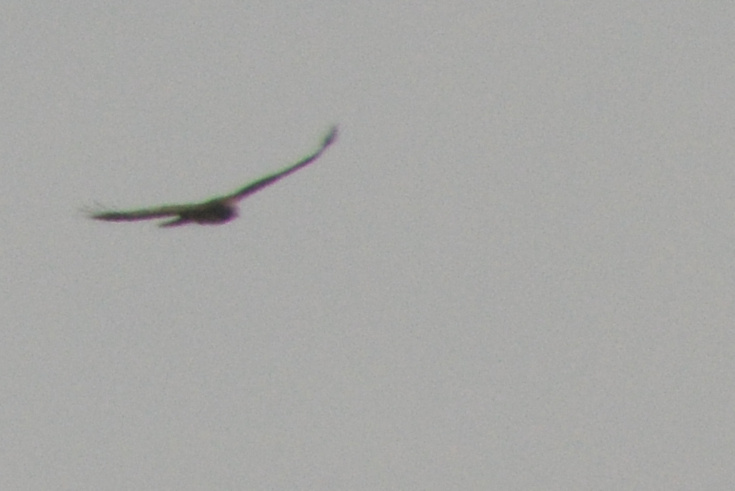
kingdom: Animalia
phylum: Chordata
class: Aves
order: Accipitriformes
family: Accipitridae
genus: Buteo
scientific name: Buteo jamaicensis
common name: Red-tailed hawk
